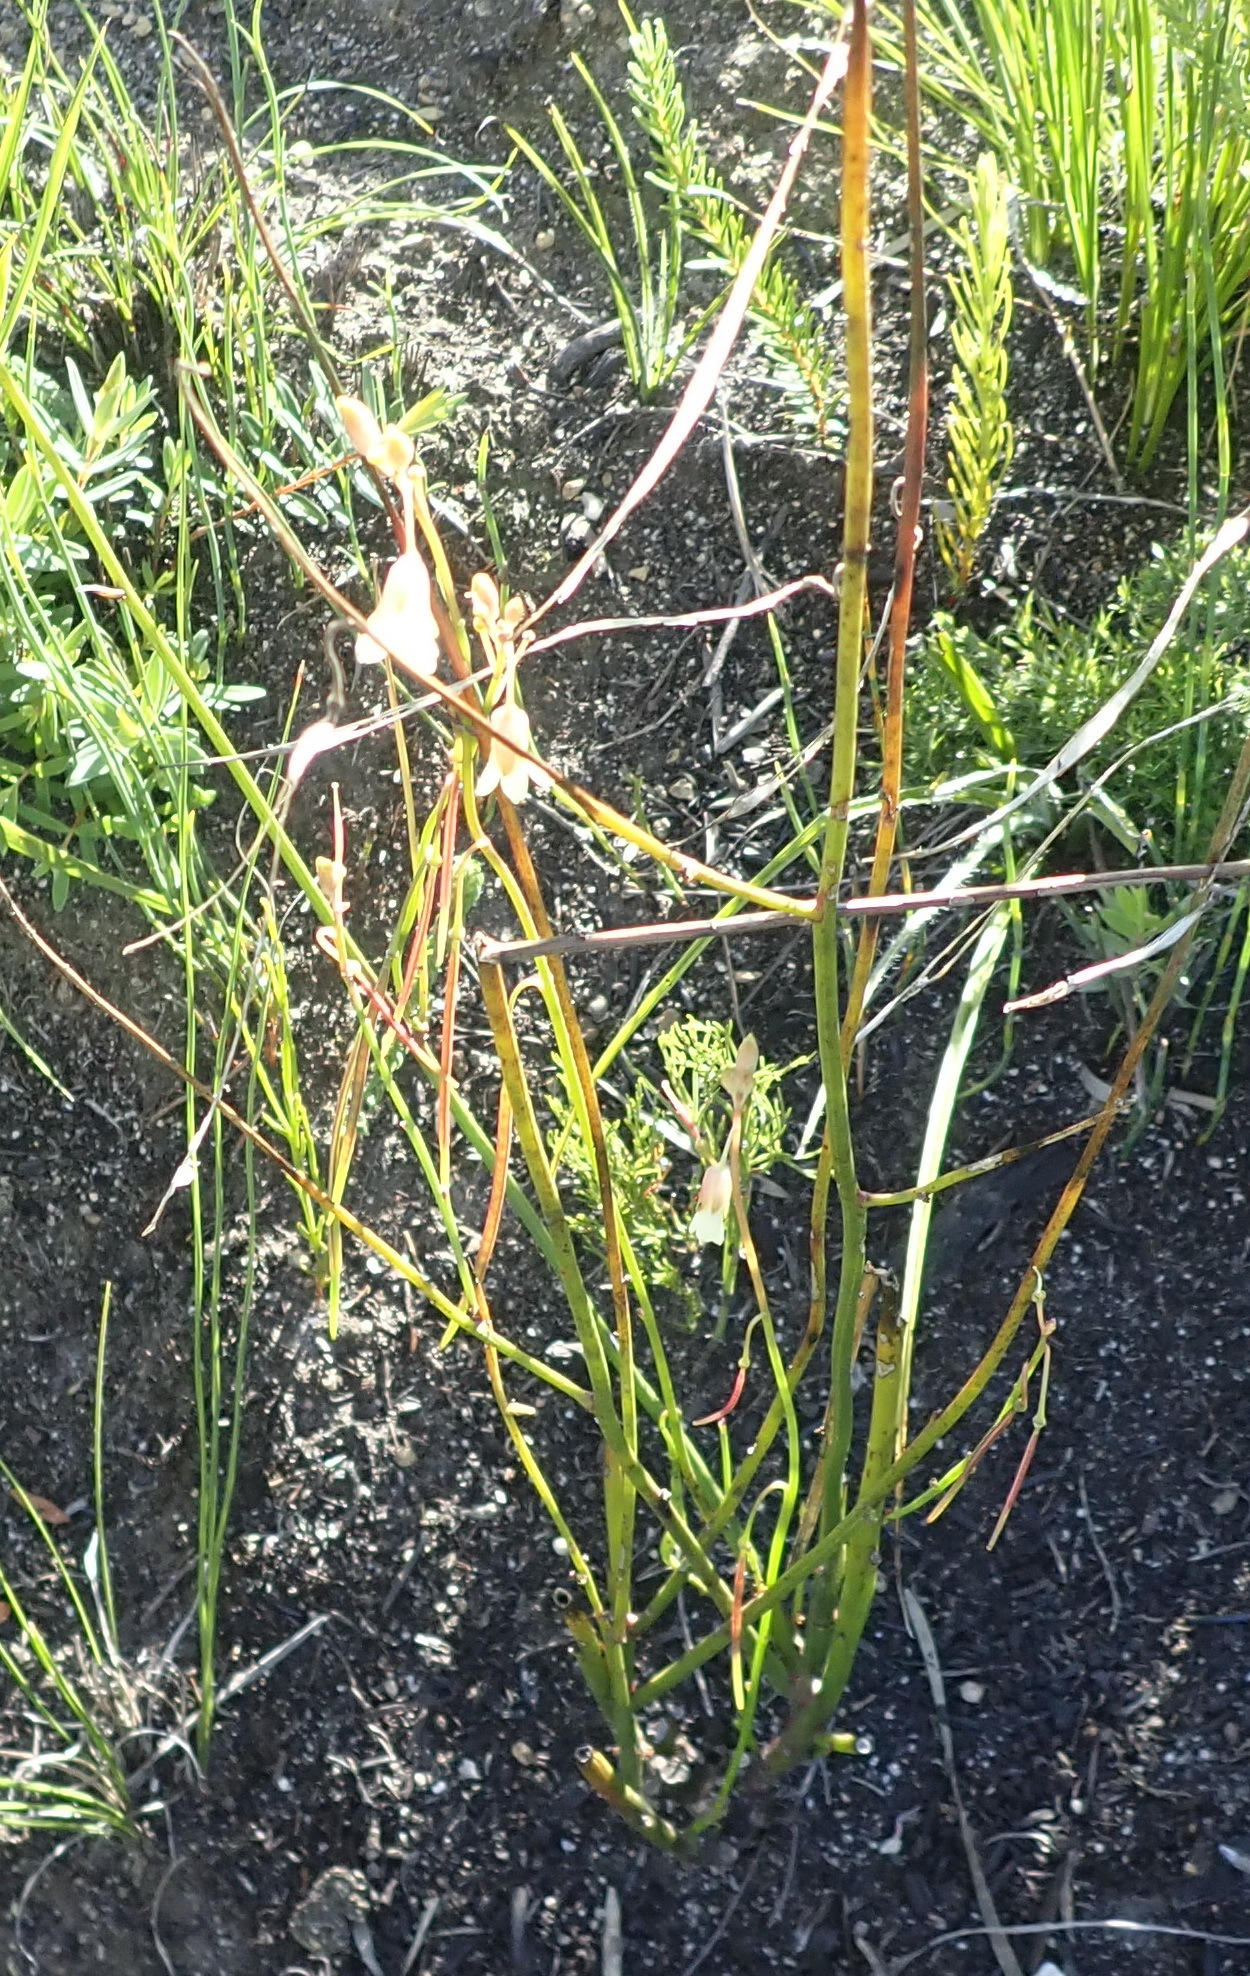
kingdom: Plantae
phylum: Tracheophyta
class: Magnoliopsida
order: Brassicales
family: Brassicaceae
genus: Heliophila
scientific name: Heliophila elongata
